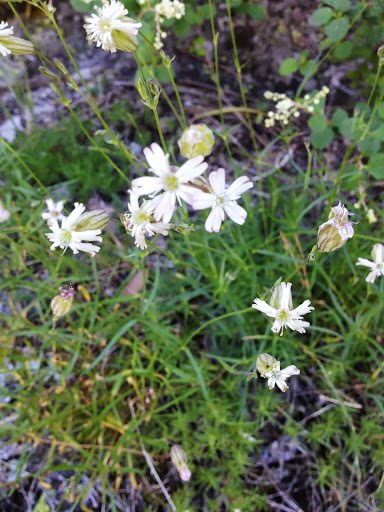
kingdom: Plantae
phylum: Tracheophyta
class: Magnoliopsida
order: Caryophyllales
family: Caryophyllaceae
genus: Silene
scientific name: Silene douglasii
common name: Douglas's catchfly
